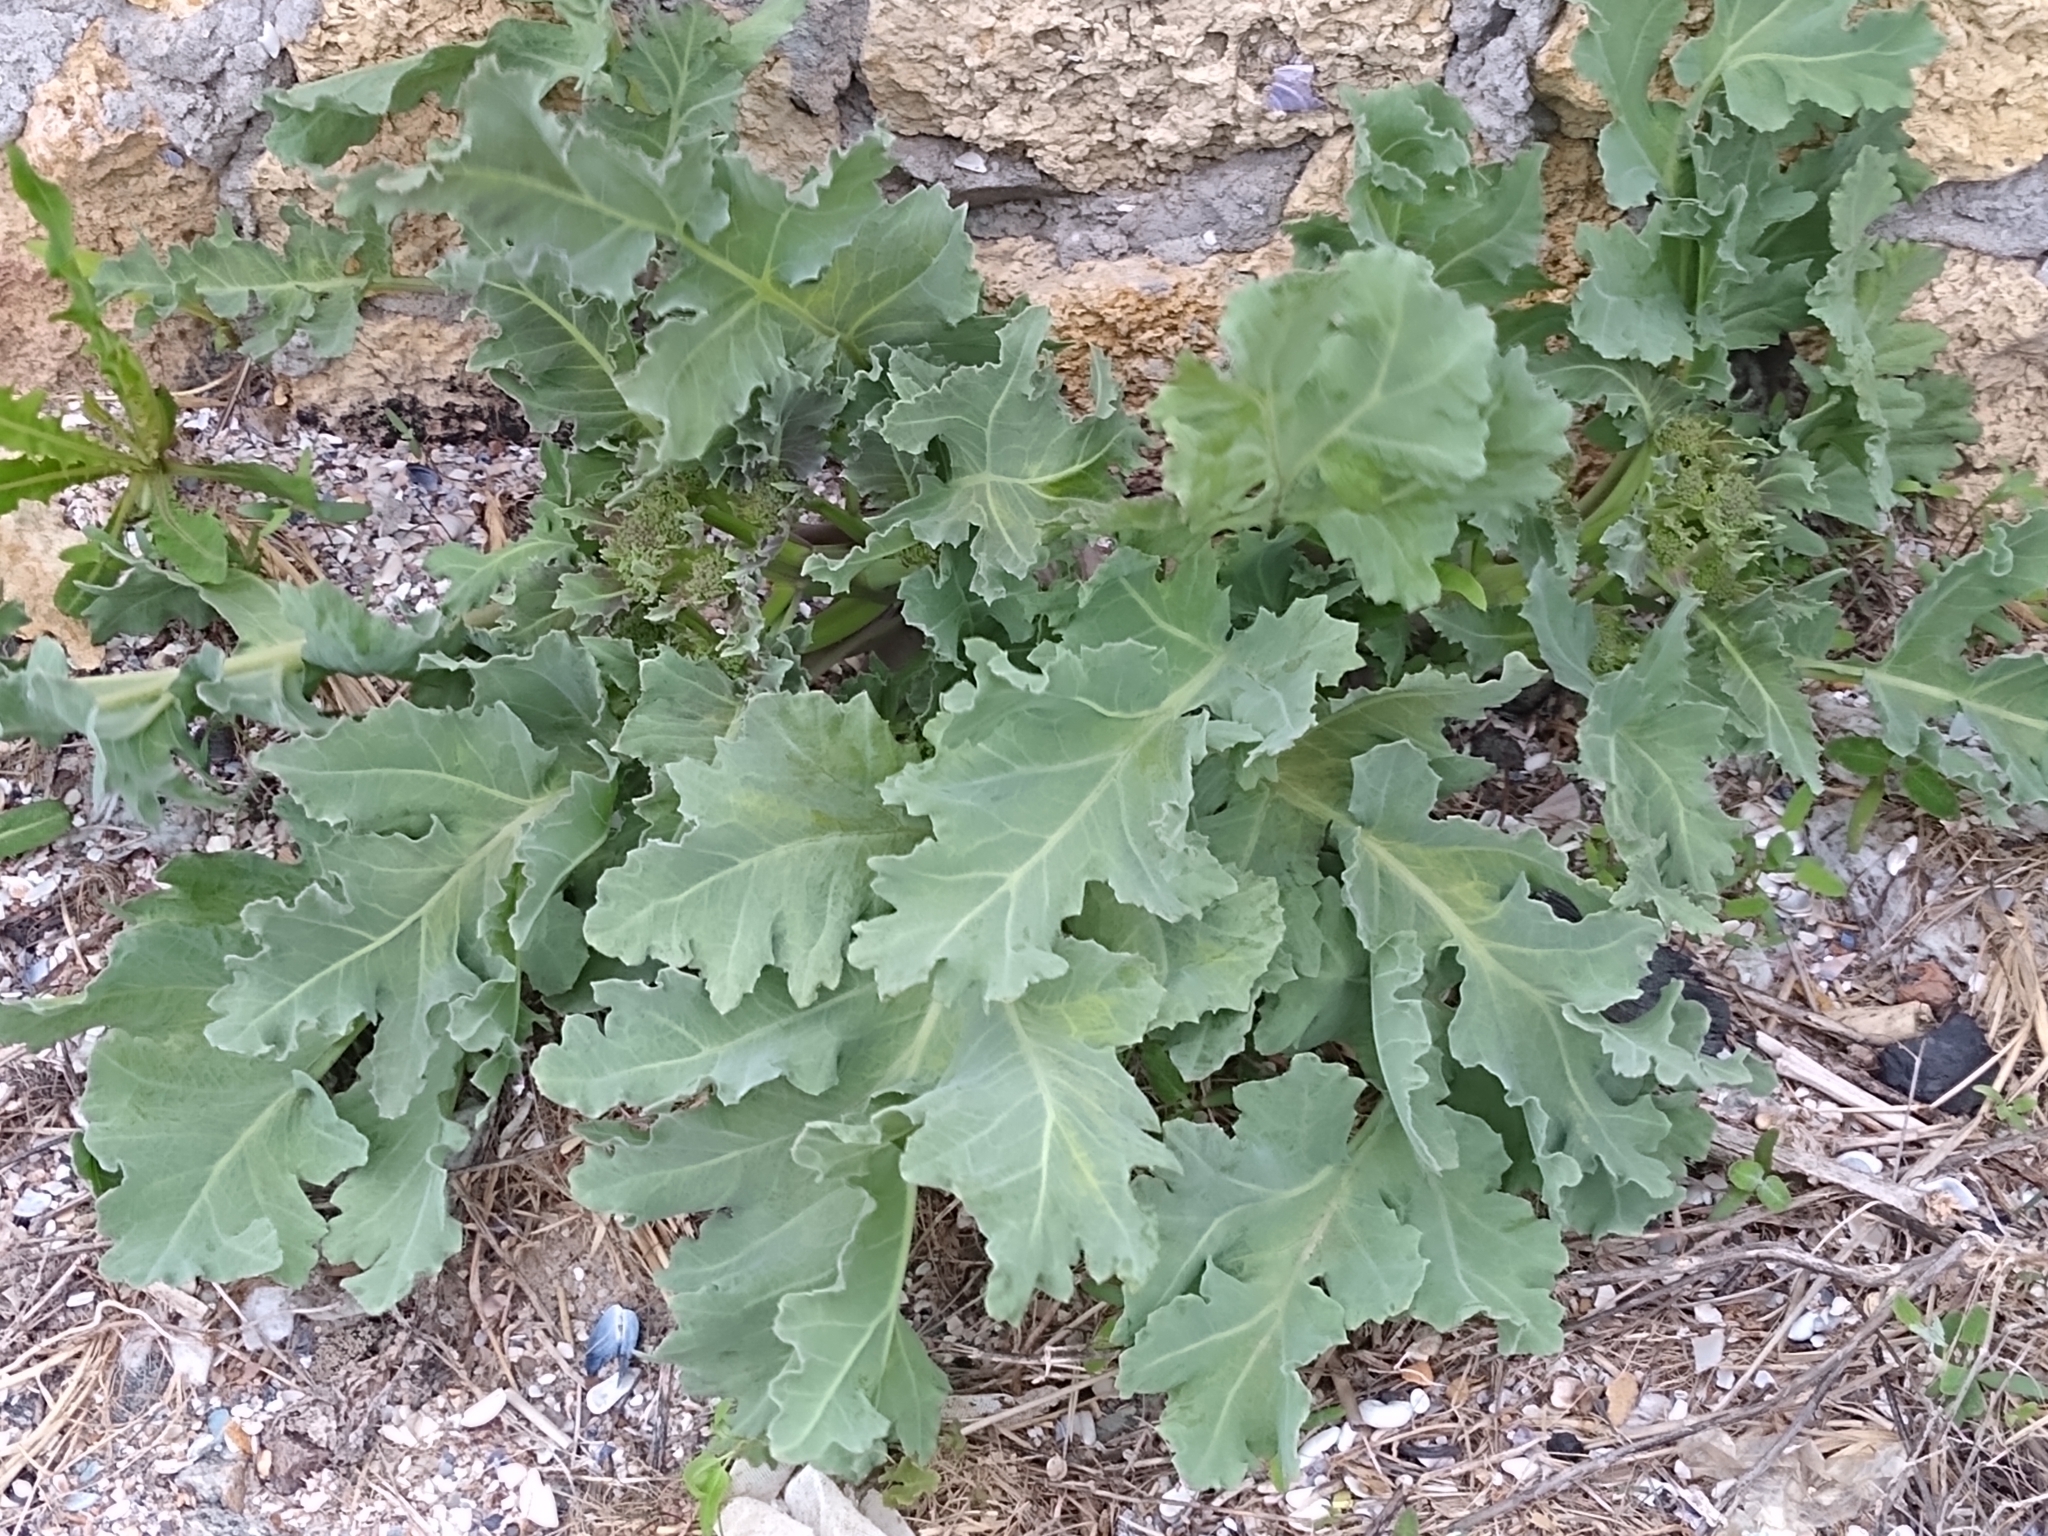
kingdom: Plantae
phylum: Tracheophyta
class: Magnoliopsida
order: Brassicales
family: Brassicaceae
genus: Crambe
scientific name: Crambe maritima
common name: Sea-kale
